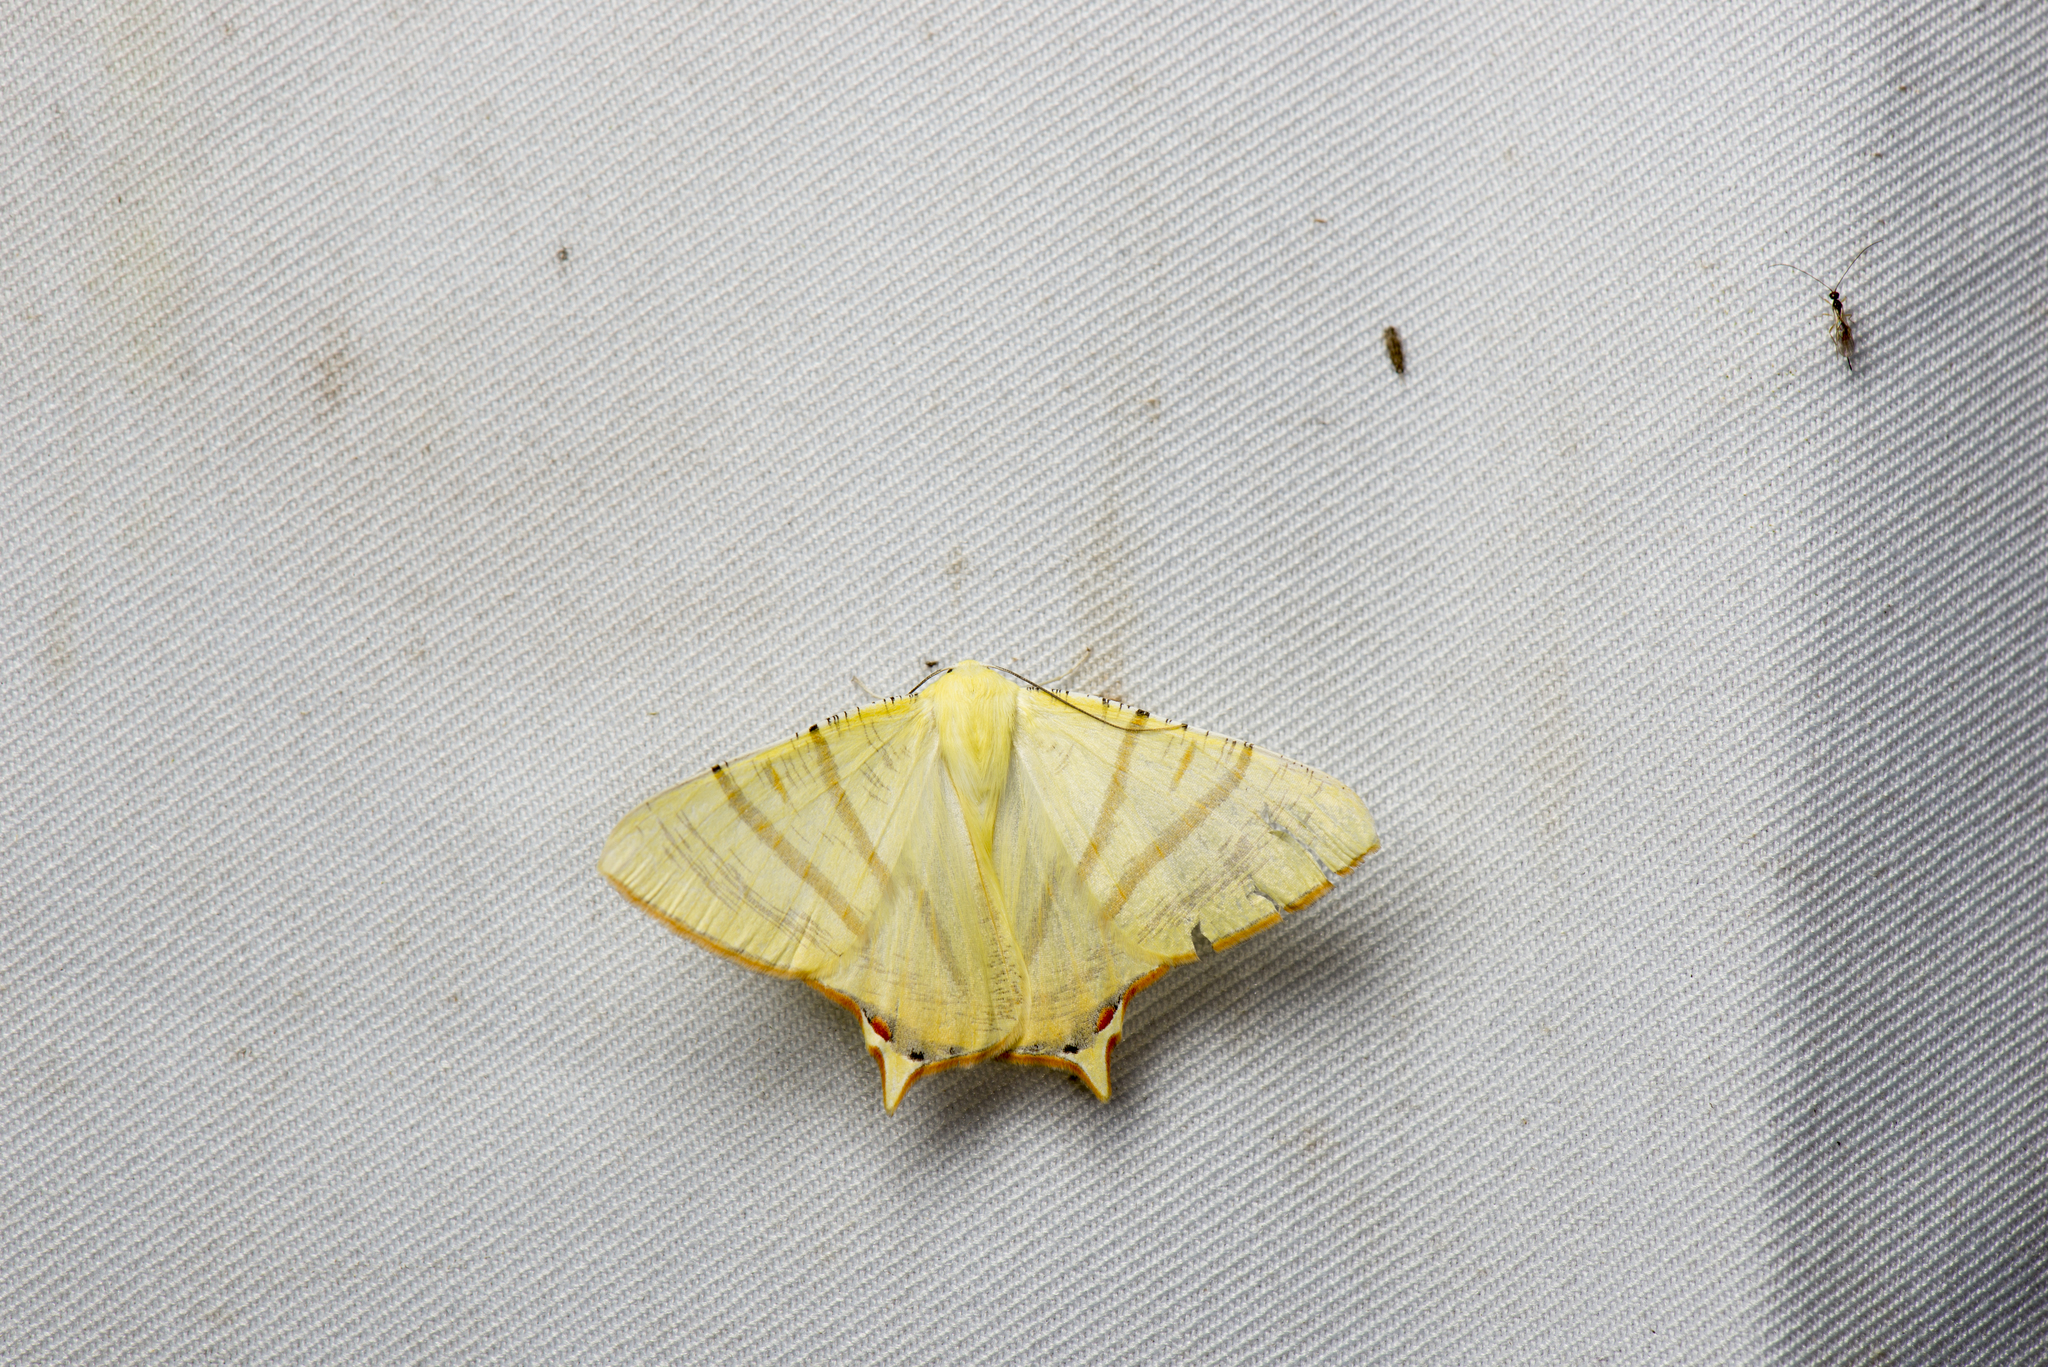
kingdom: Animalia
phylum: Arthropoda
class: Insecta
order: Lepidoptera
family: Geometridae
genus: Ourapteryx
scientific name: Ourapteryx sciticaudaria
